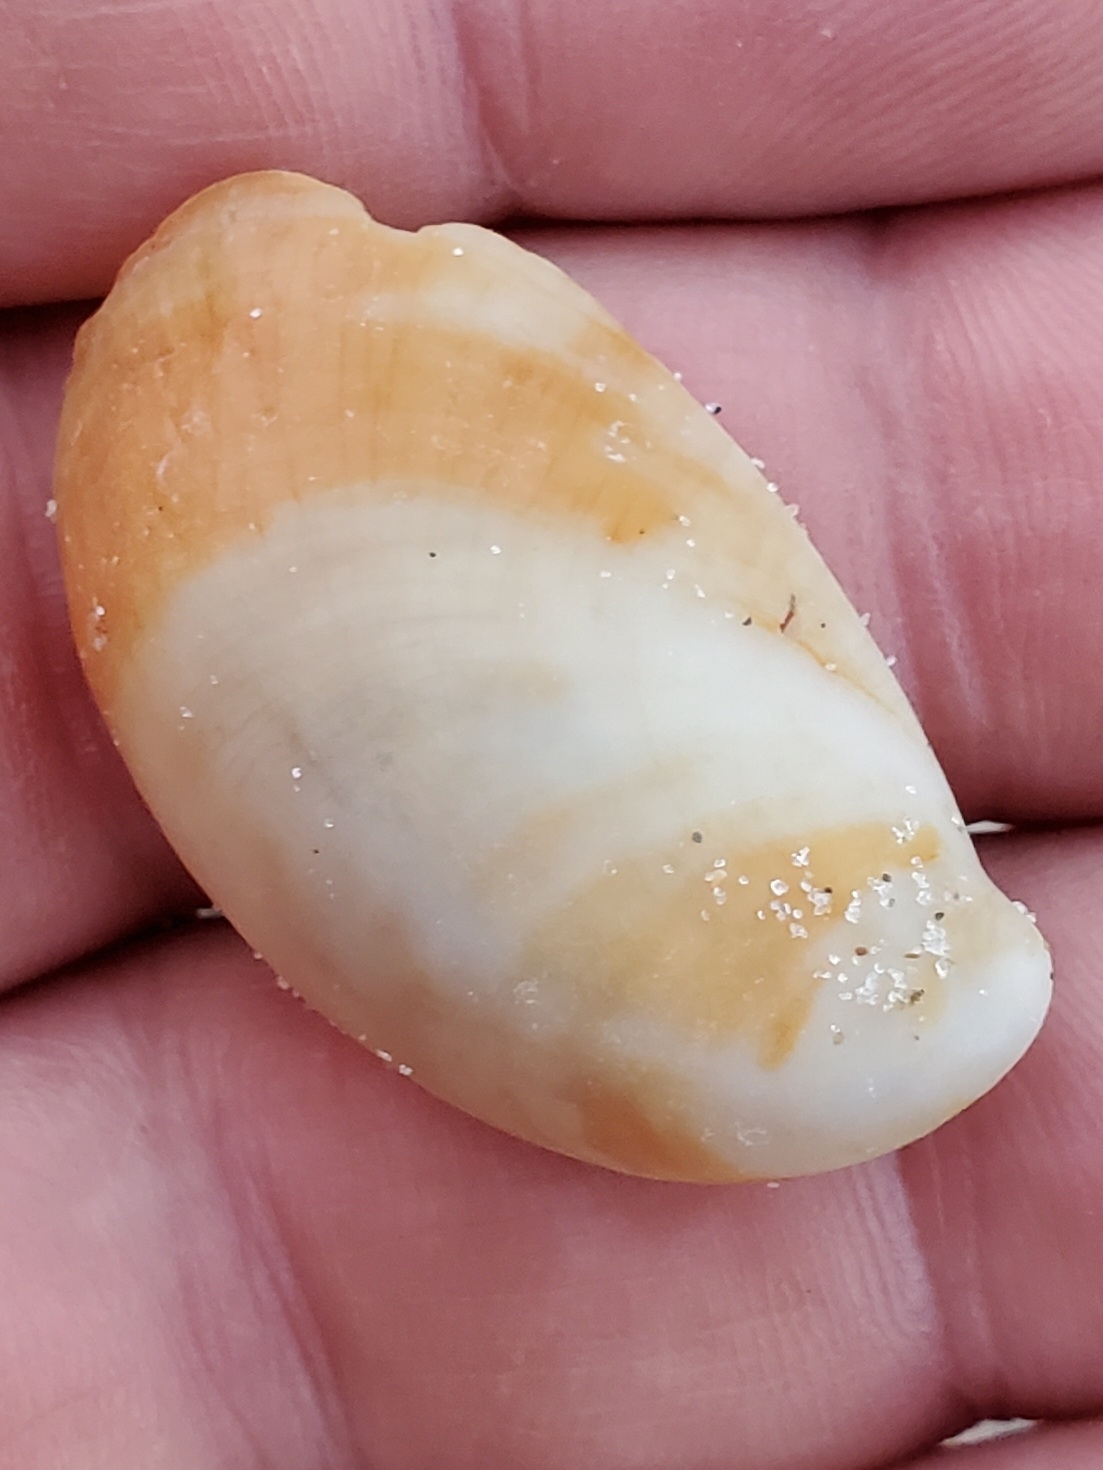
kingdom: Animalia
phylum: Mollusca
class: Gastropoda
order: Littorinimorpha
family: Calyptraeidae
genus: Crepidula
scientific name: Crepidula fornicata
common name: Slipper limpet
